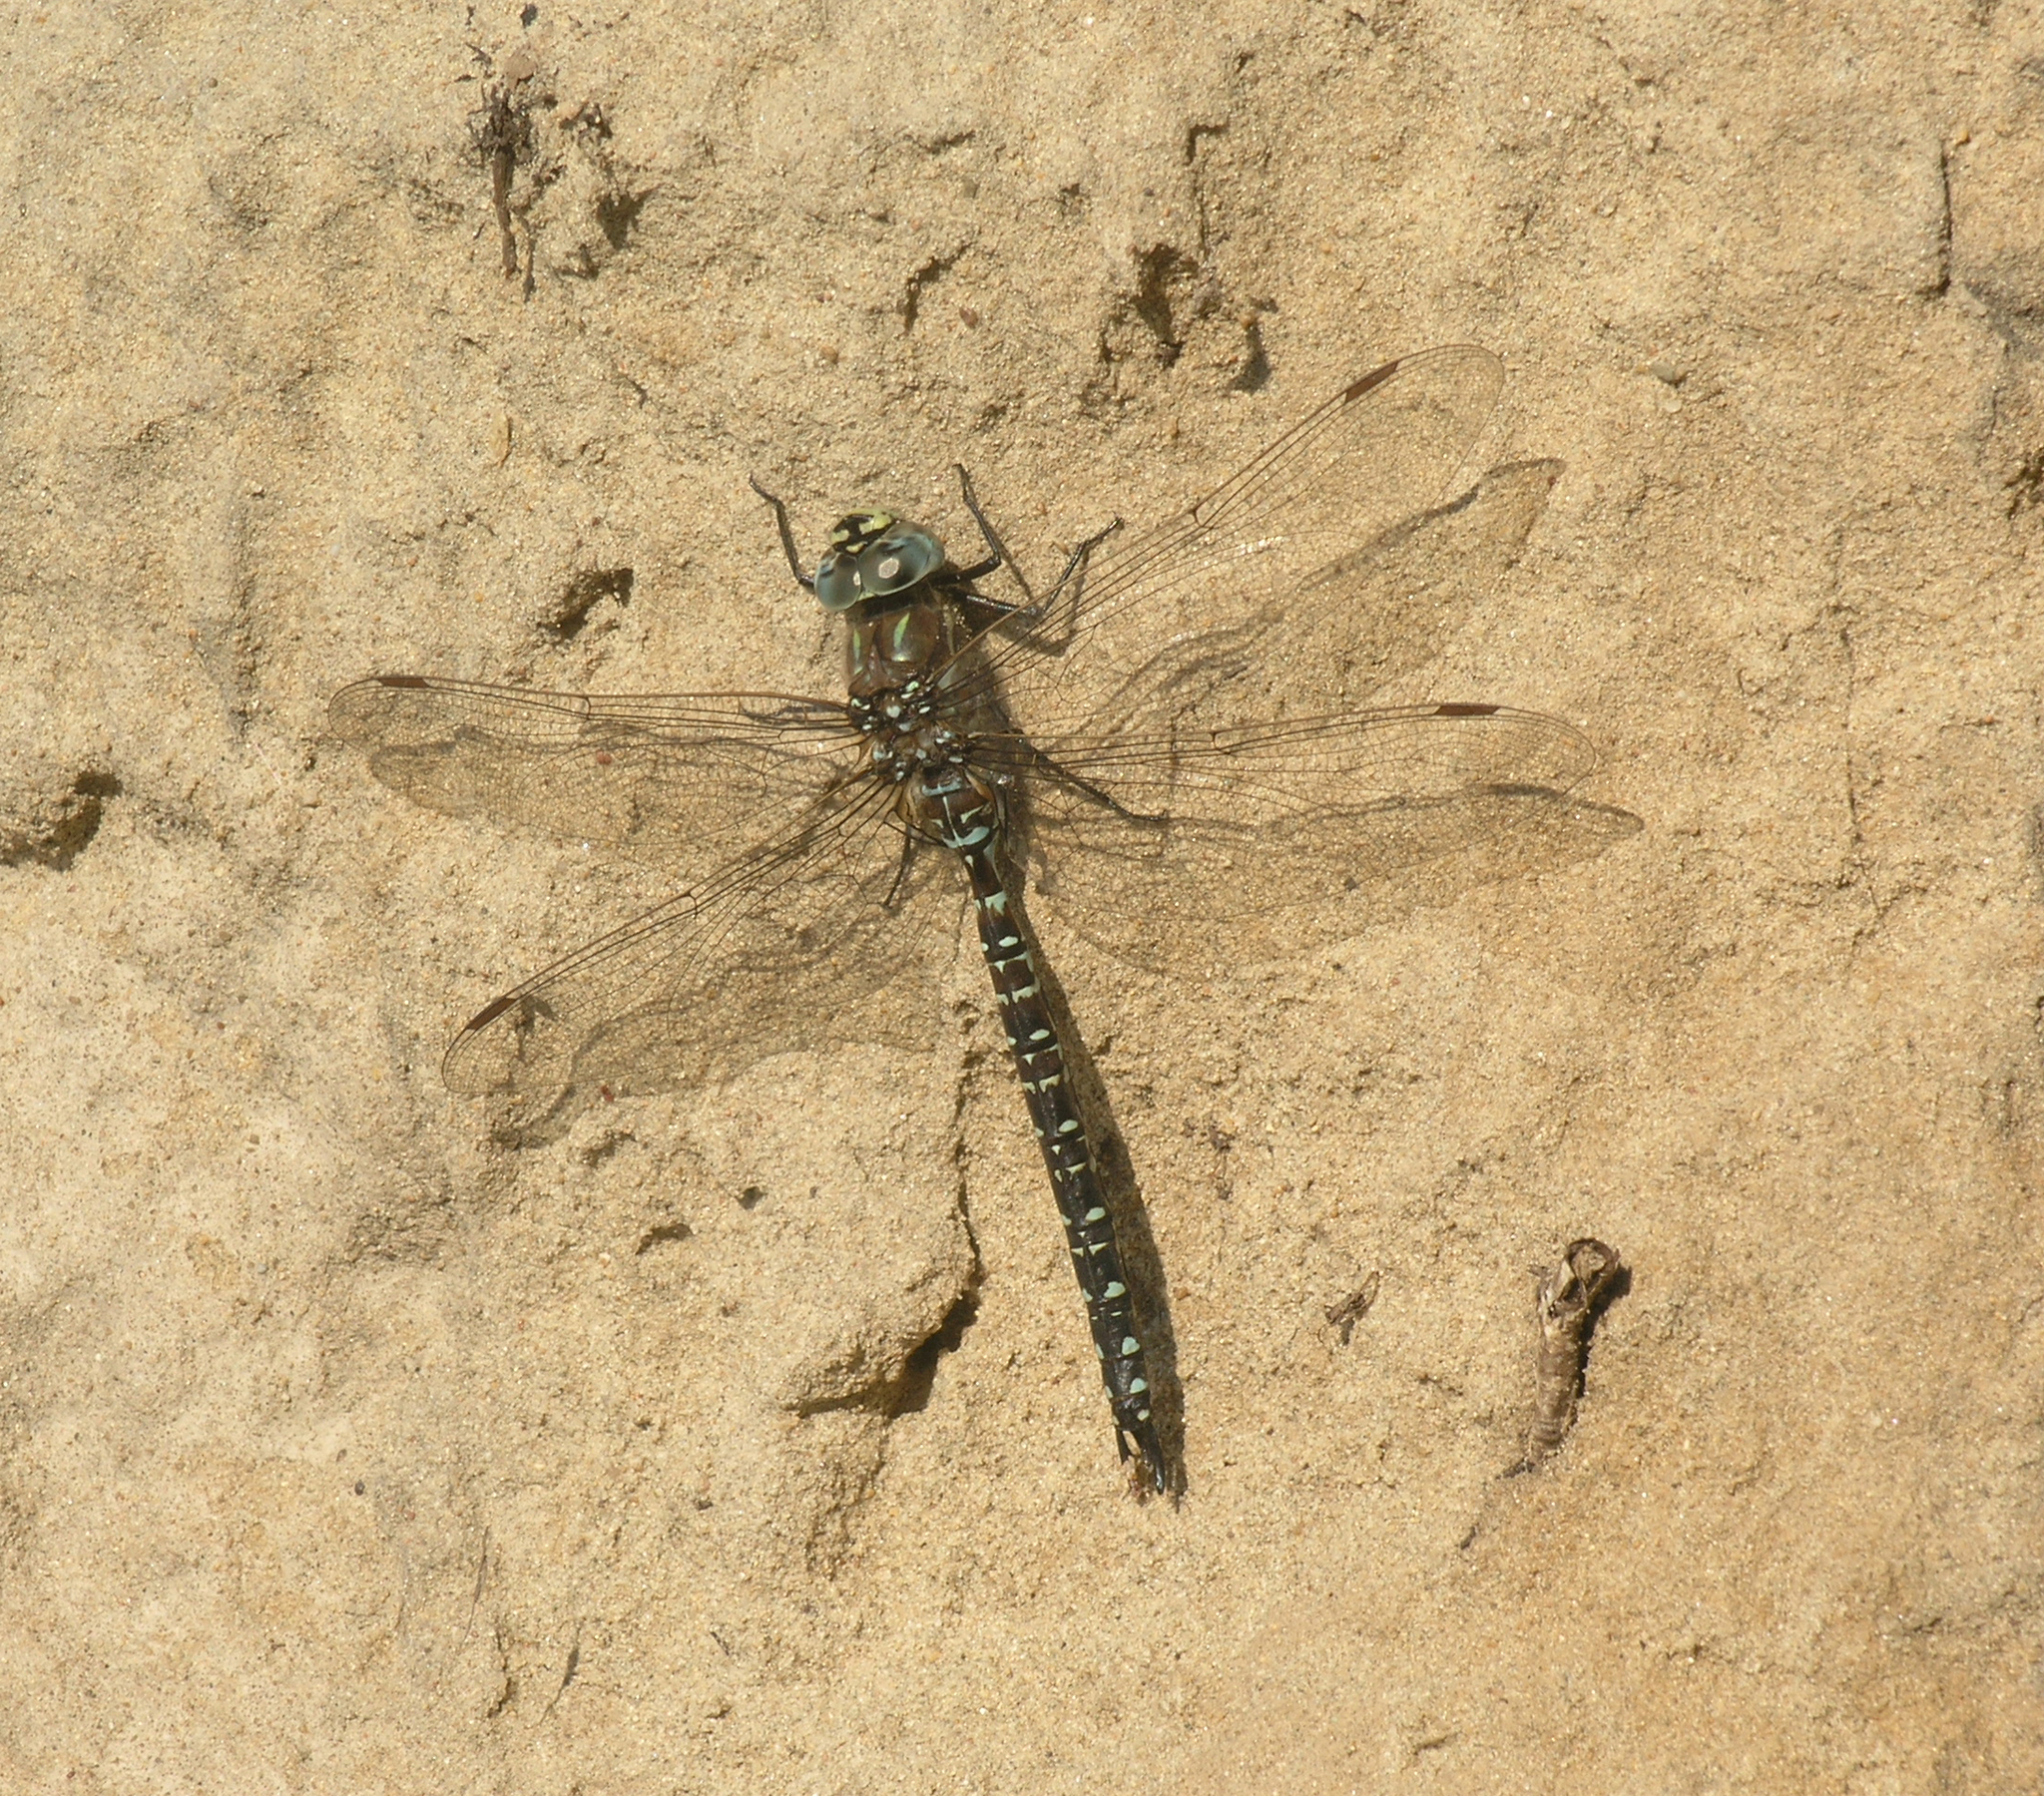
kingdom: Animalia
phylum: Arthropoda
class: Insecta
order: Odonata
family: Aeshnidae
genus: Aeshna
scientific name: Aeshna subarctica
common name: Subarctic darner
